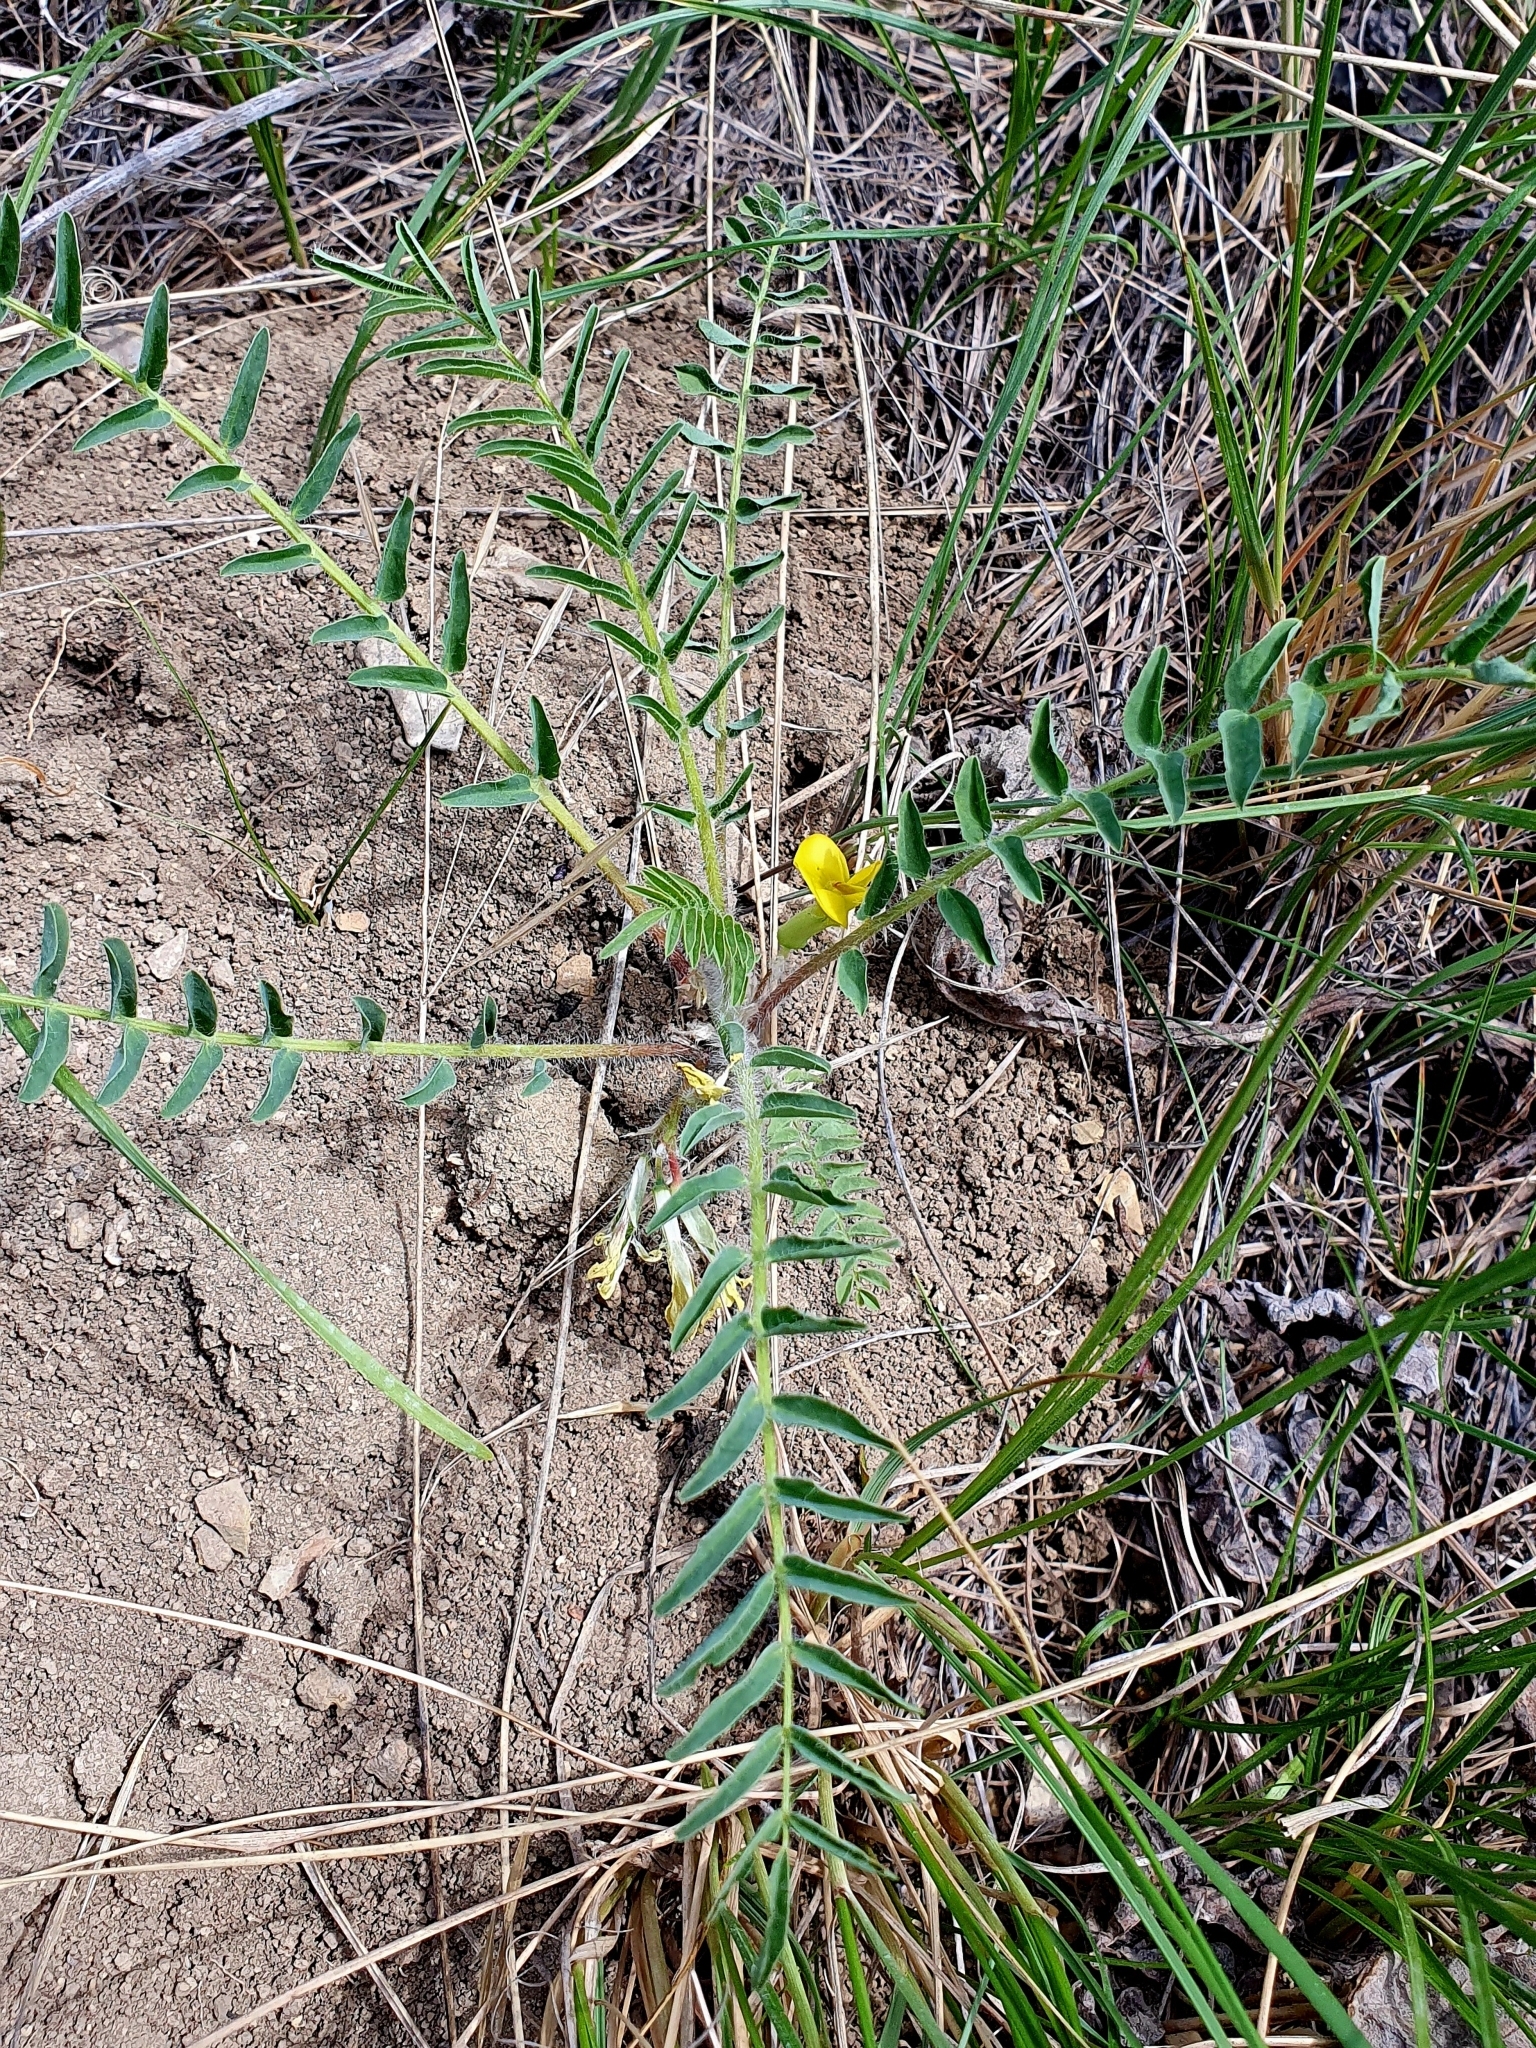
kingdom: Plantae
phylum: Tracheophyta
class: Magnoliopsida
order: Fabales
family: Fabaceae
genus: Astragalus
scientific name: Astragalus wolgensis
